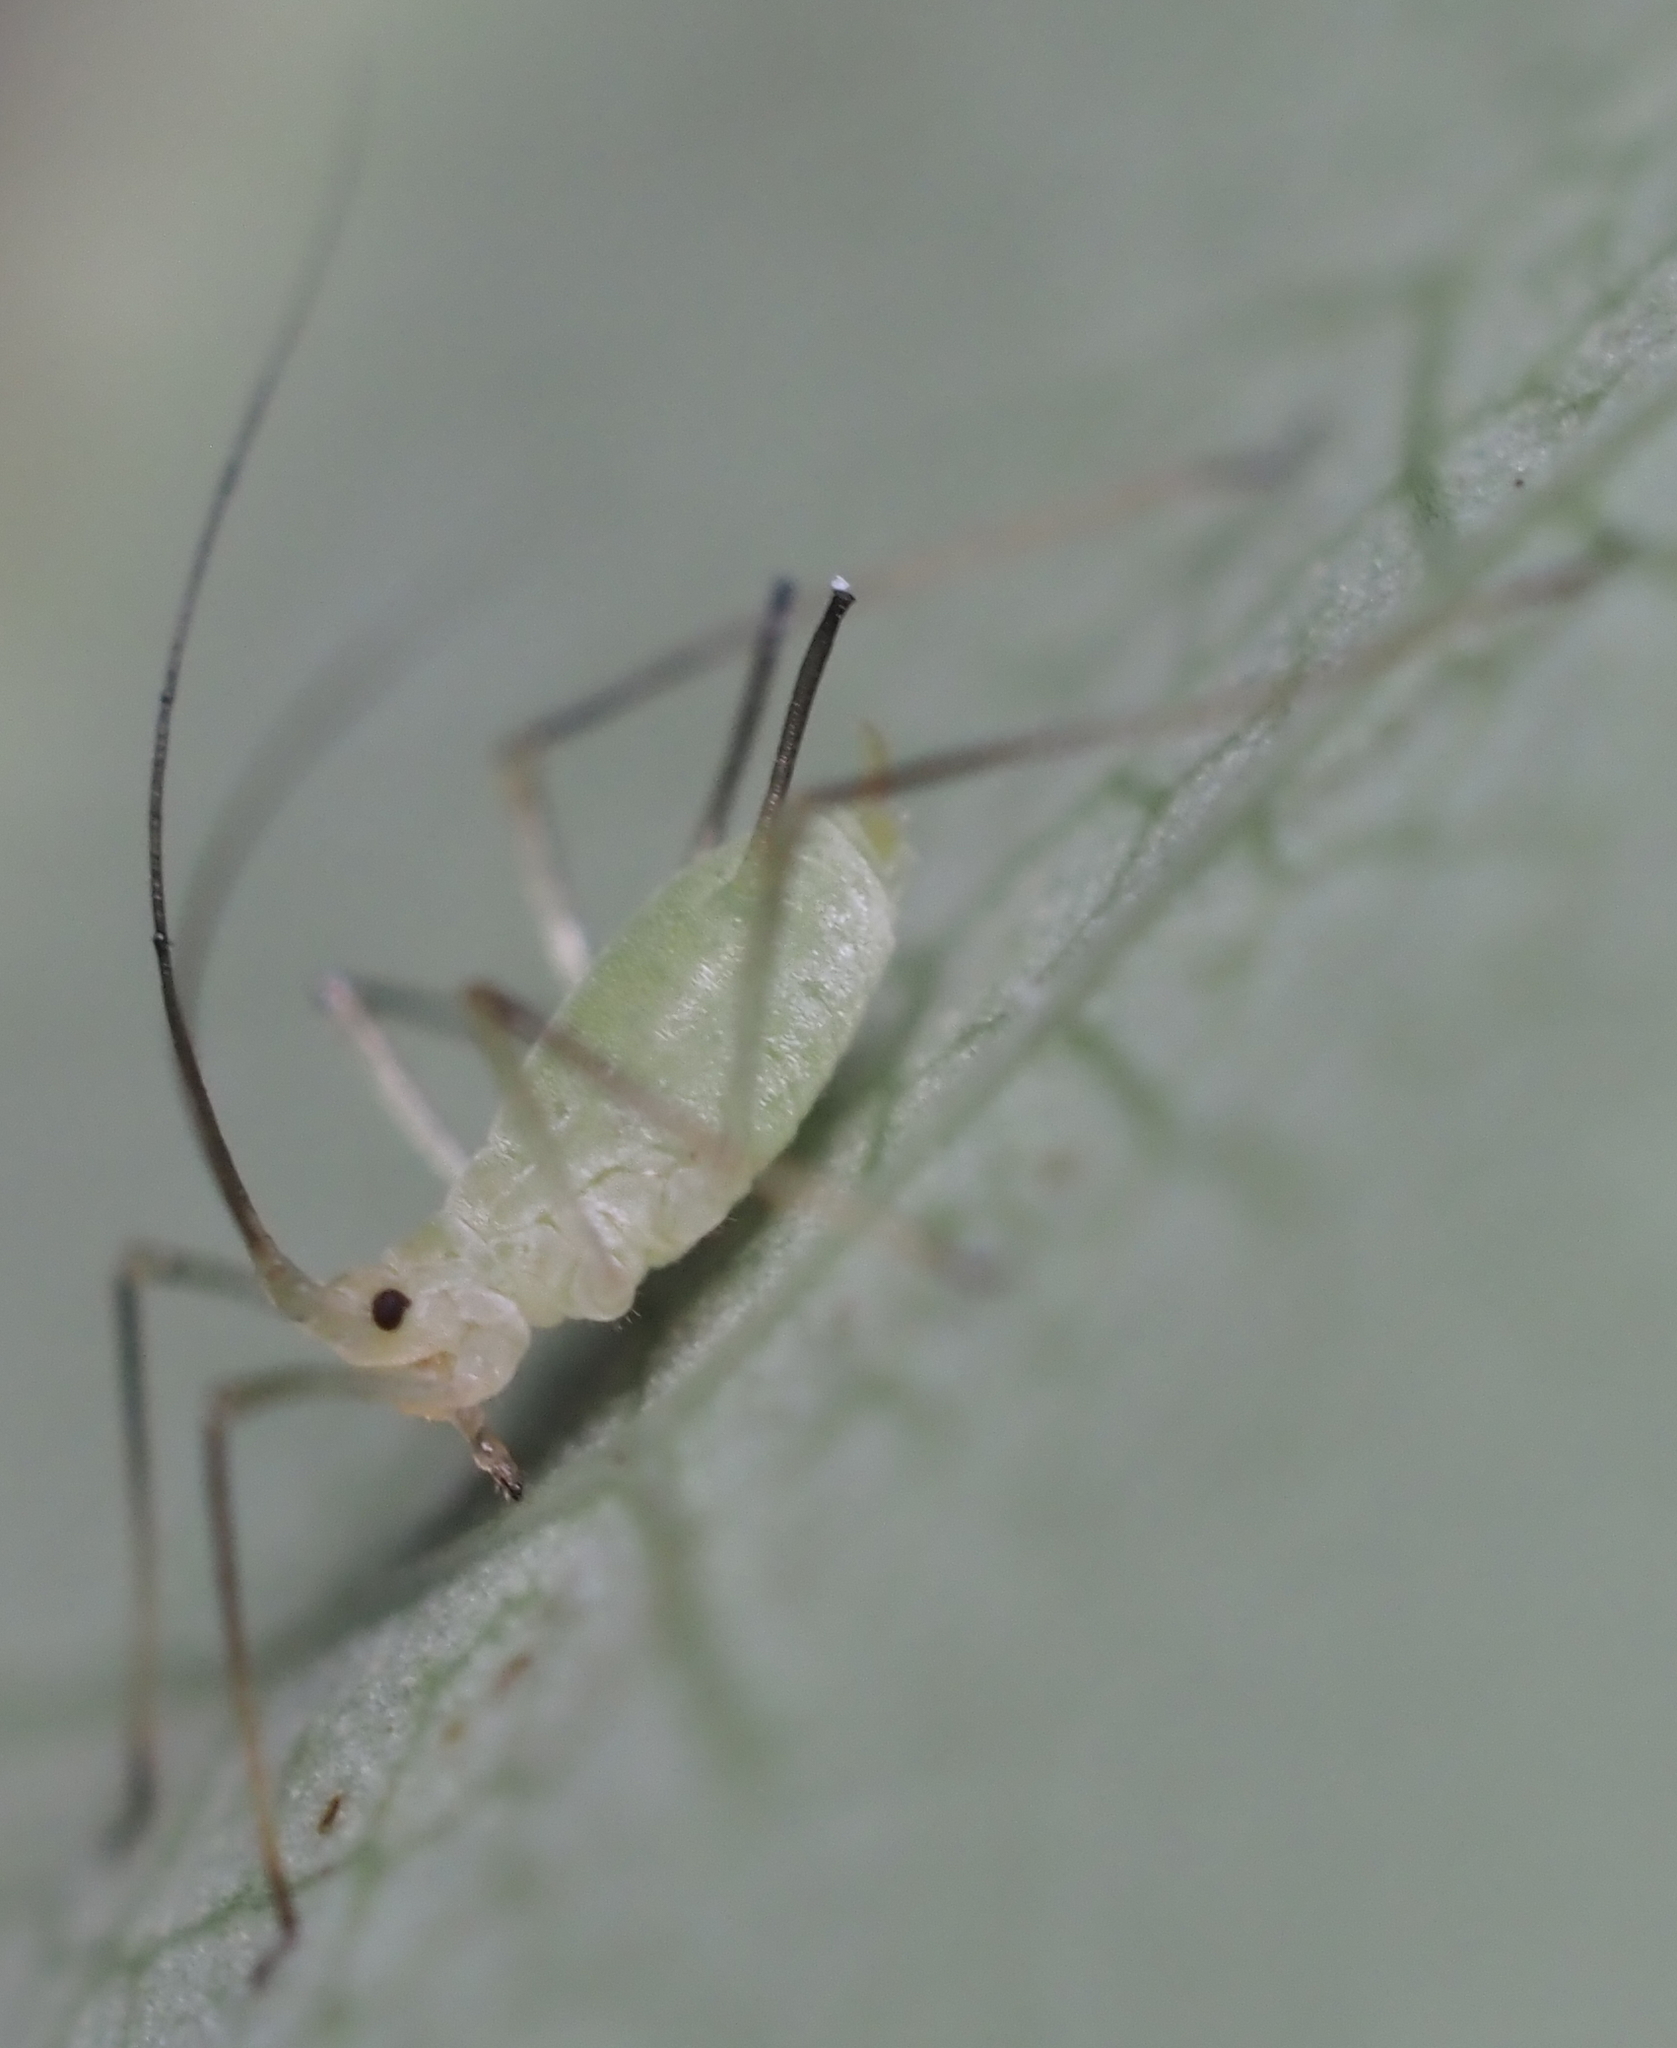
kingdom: Animalia
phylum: Arthropoda
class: Insecta
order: Hemiptera
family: Aphididae
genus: Illinoia
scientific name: Illinoia liriodendri
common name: Tuliptree aphid
